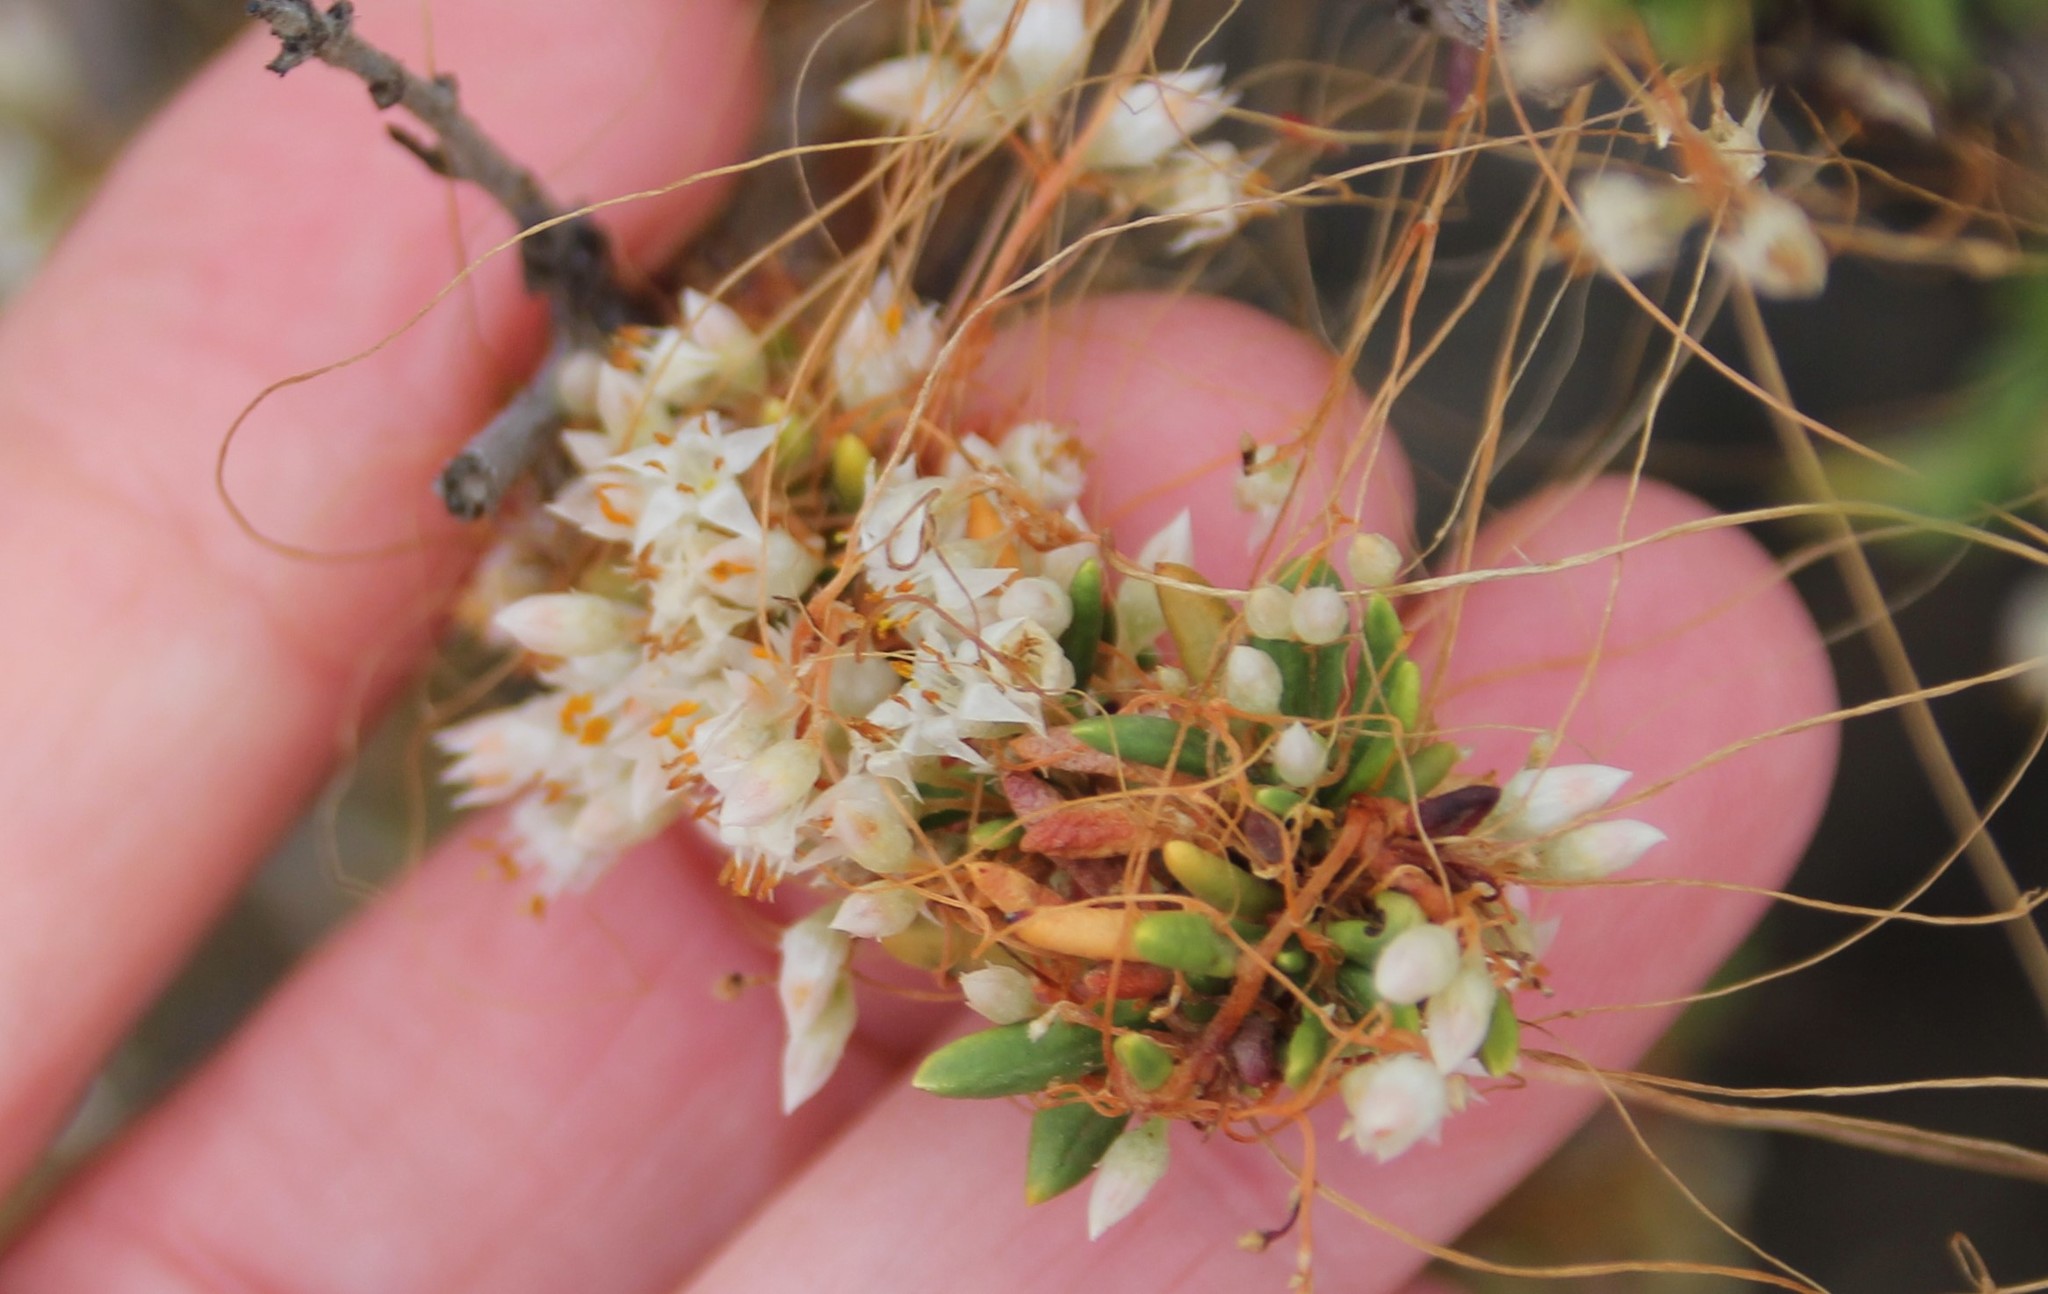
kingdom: Plantae
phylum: Tracheophyta
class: Magnoliopsida
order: Solanales
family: Convolvulaceae
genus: Cuscuta
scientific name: Cuscuta californica
